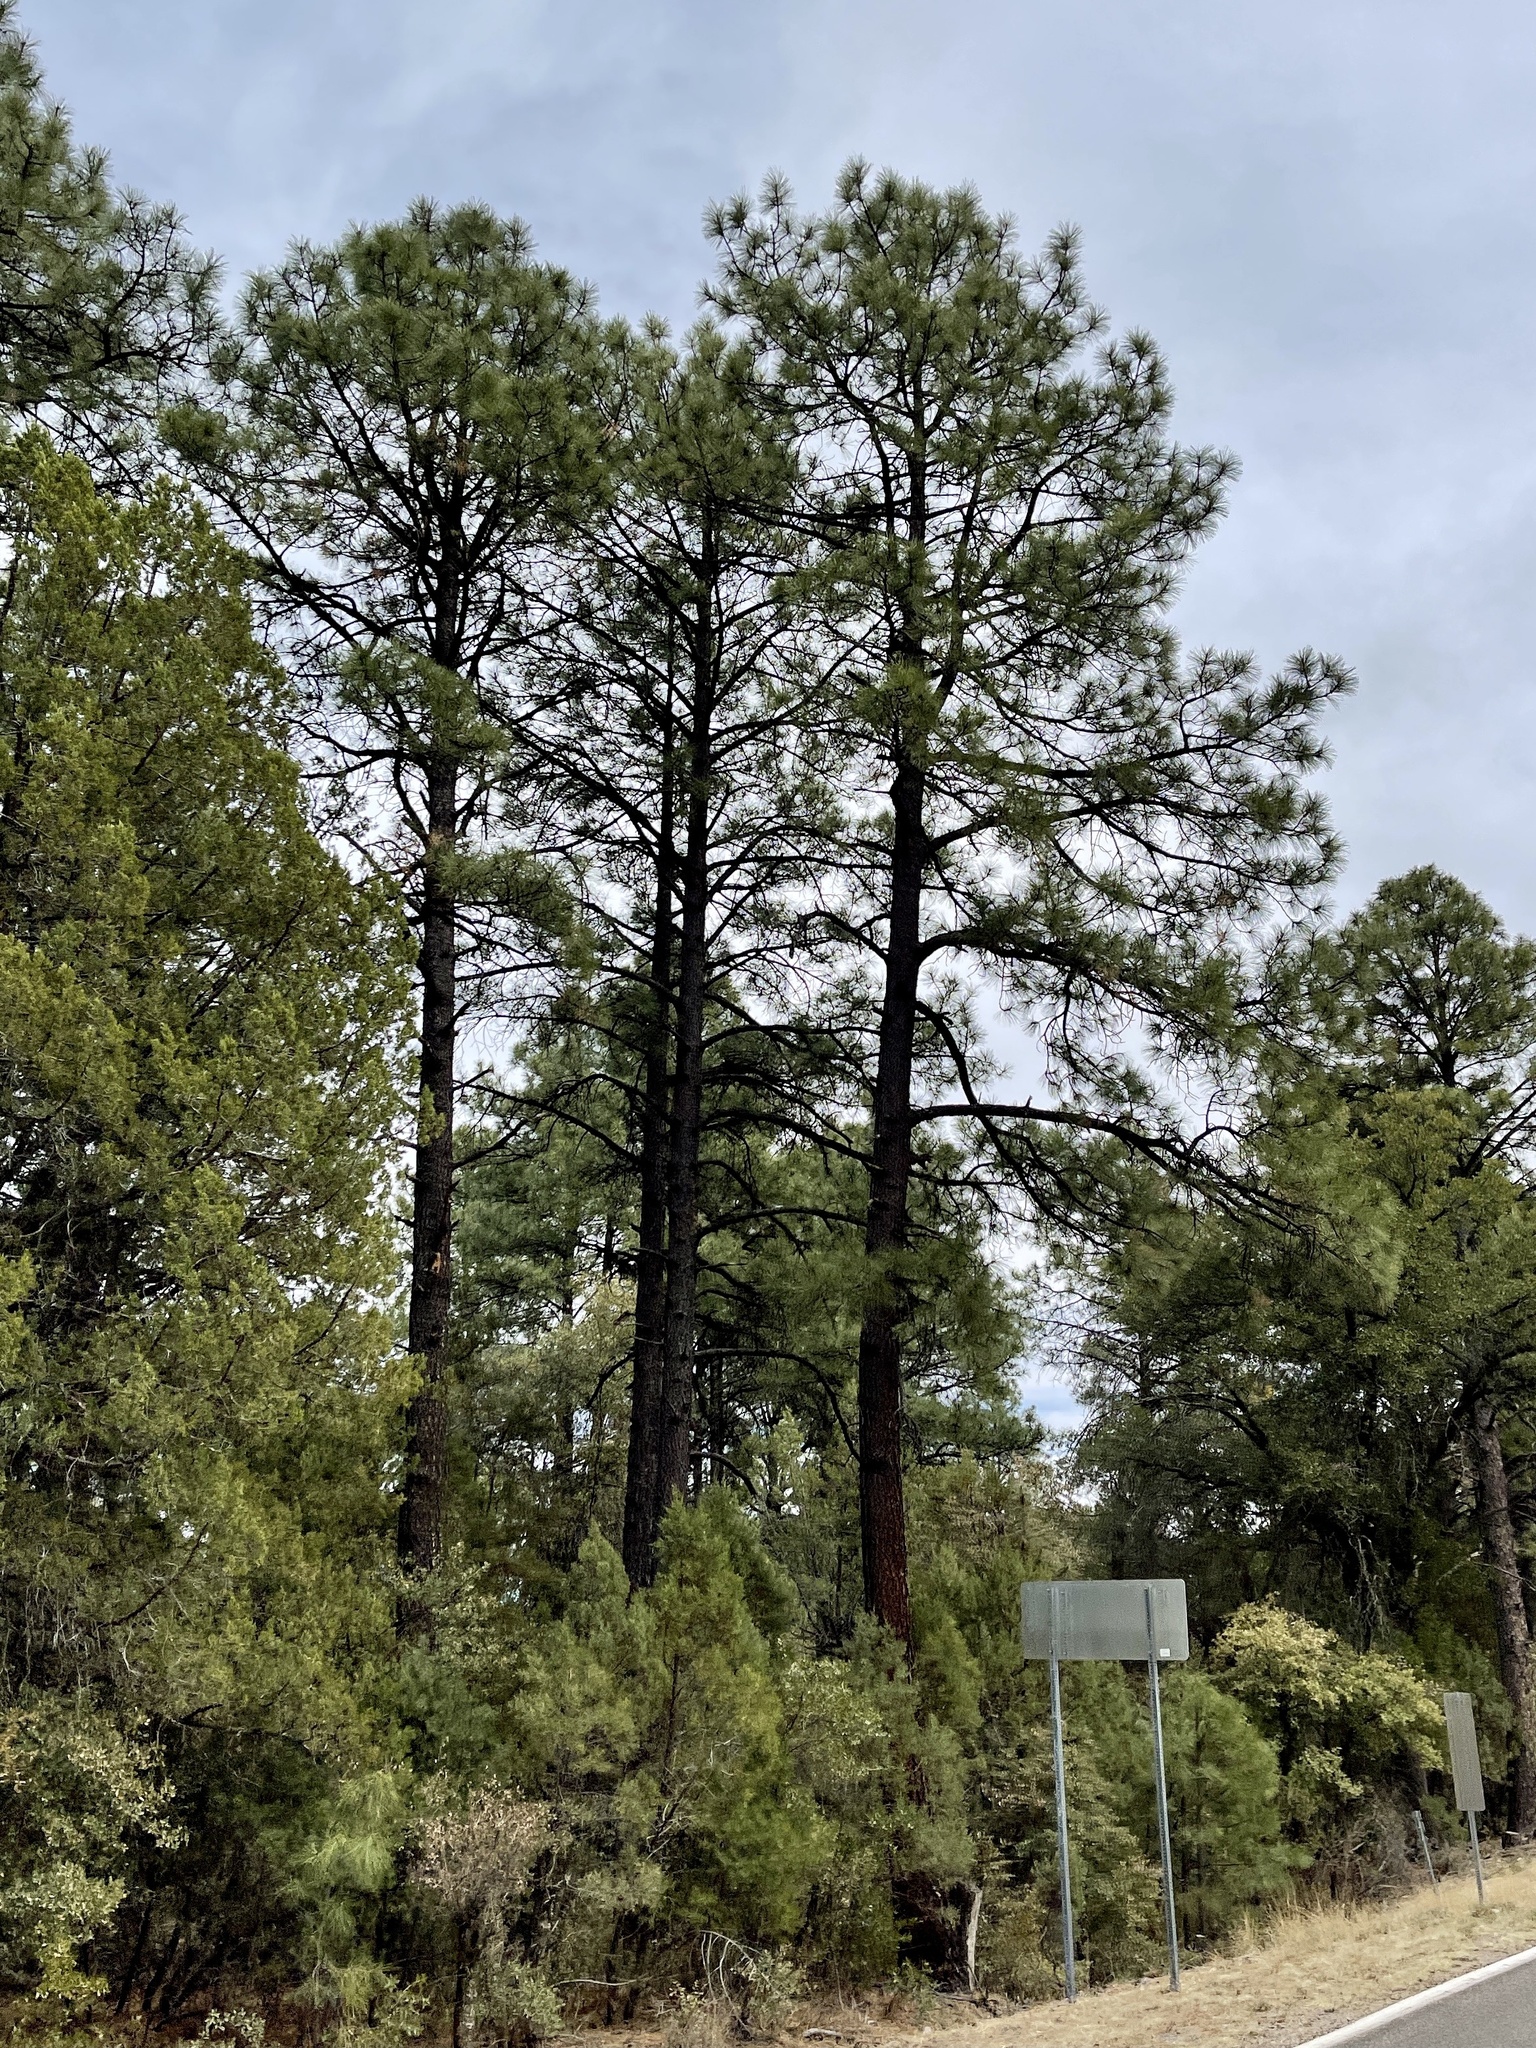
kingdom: Plantae
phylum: Tracheophyta
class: Pinopsida
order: Pinales
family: Pinaceae
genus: Pinus
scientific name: Pinus ponderosa
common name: Western yellow-pine
